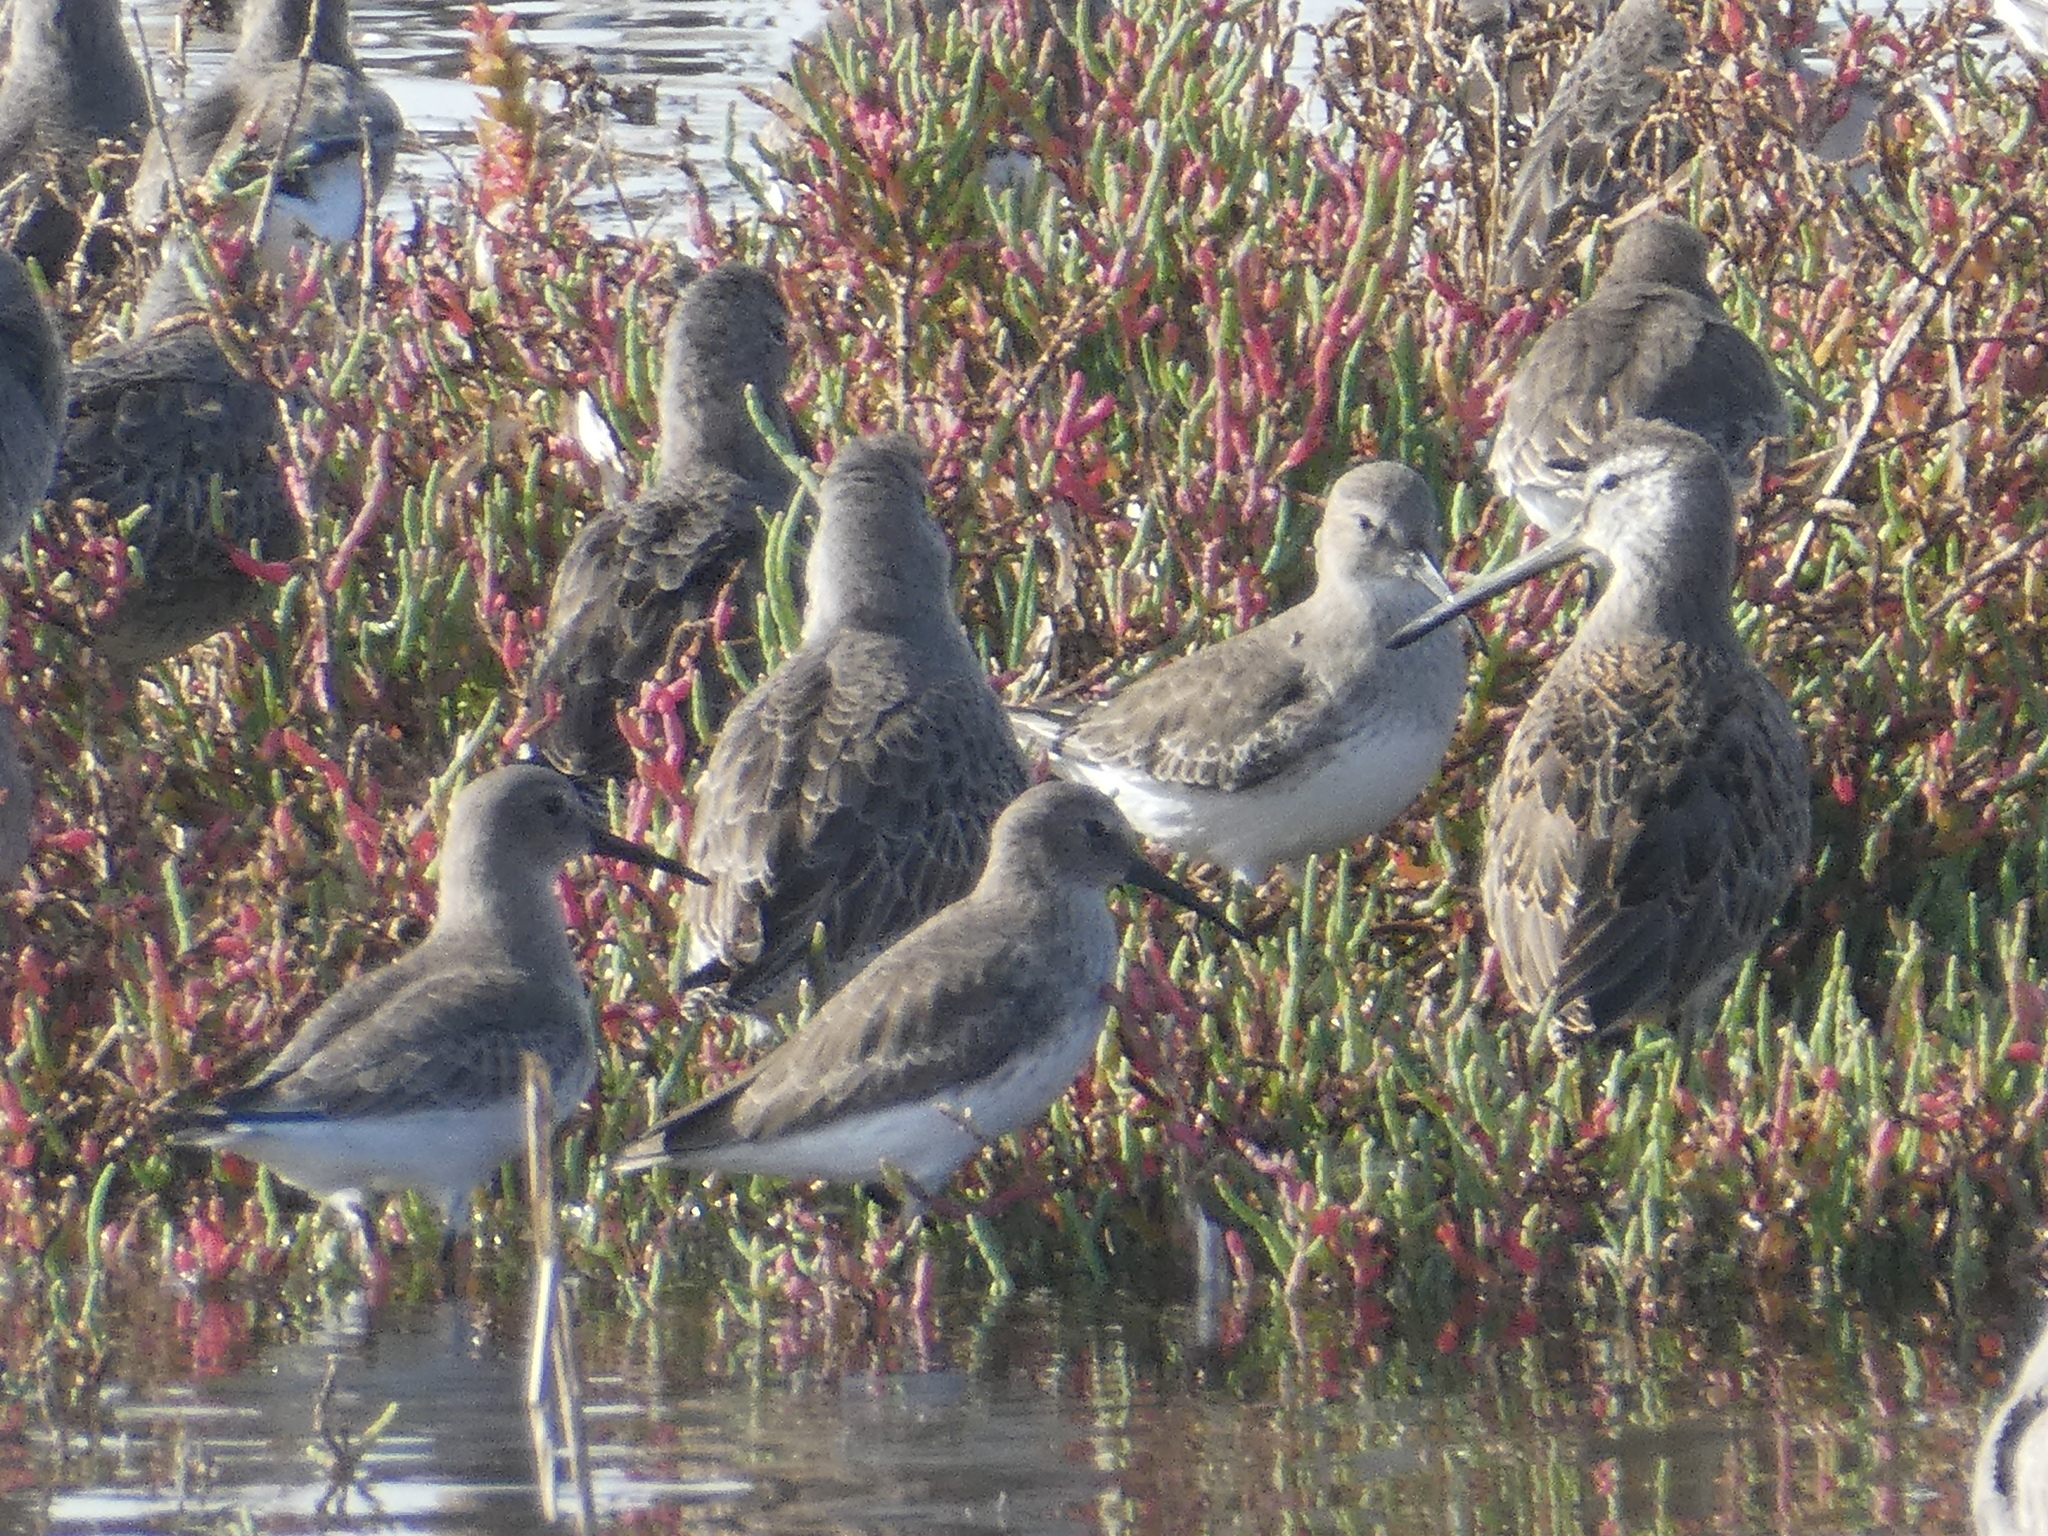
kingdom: Animalia
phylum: Chordata
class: Aves
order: Charadriiformes
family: Scolopacidae
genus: Calidris
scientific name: Calidris alpina
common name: Dunlin
